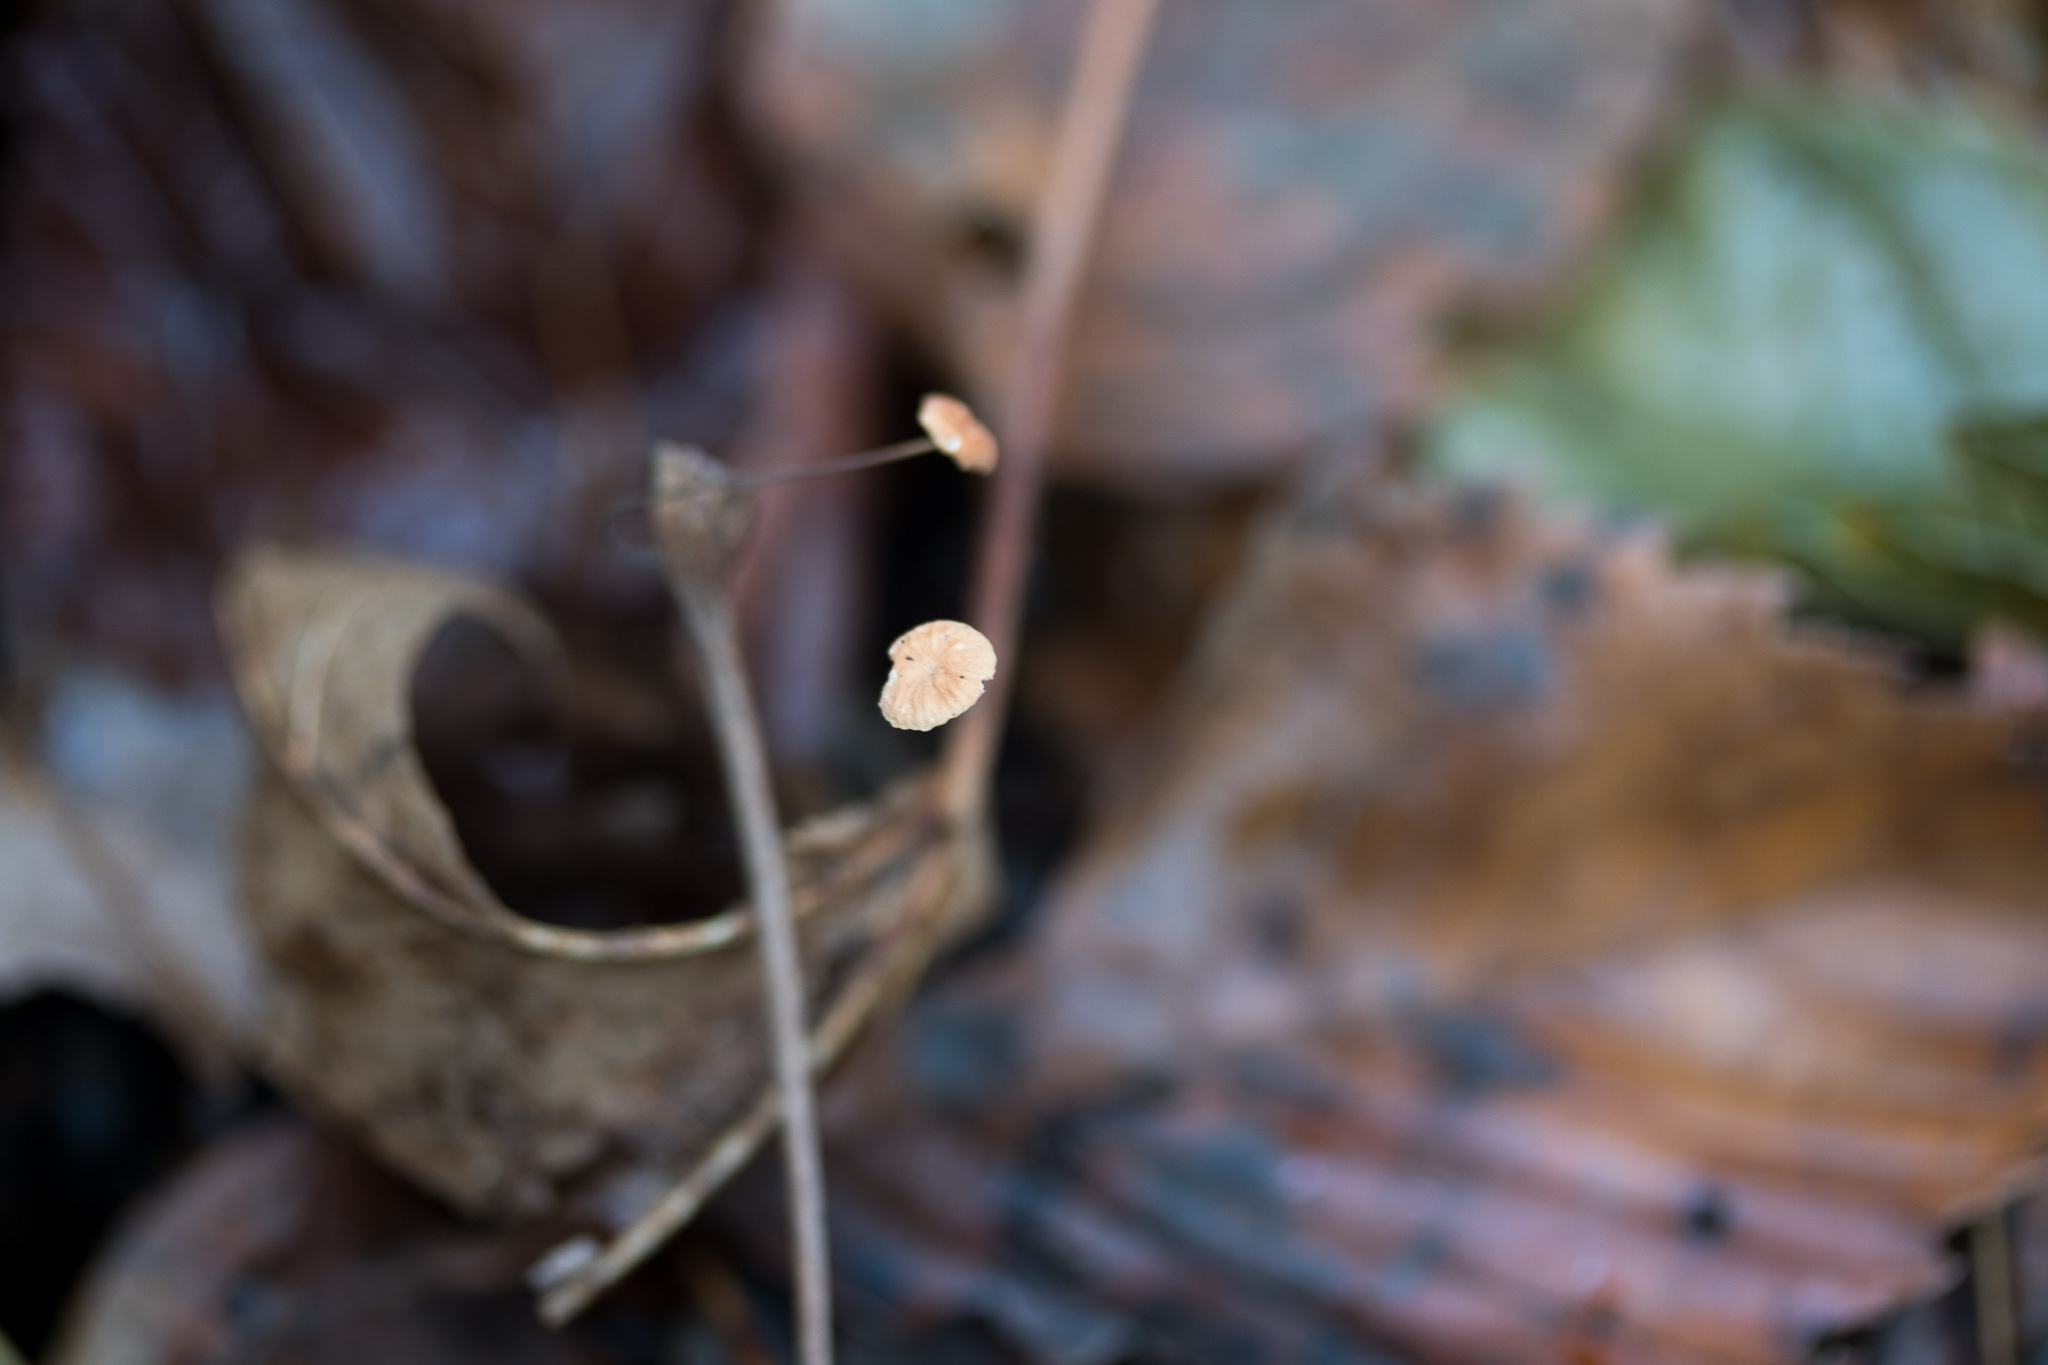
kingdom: Fungi
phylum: Basidiomycota
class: Agaricomycetes
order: Agaricales
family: Marasmiaceae
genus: Marasmius
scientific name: Marasmius felix
